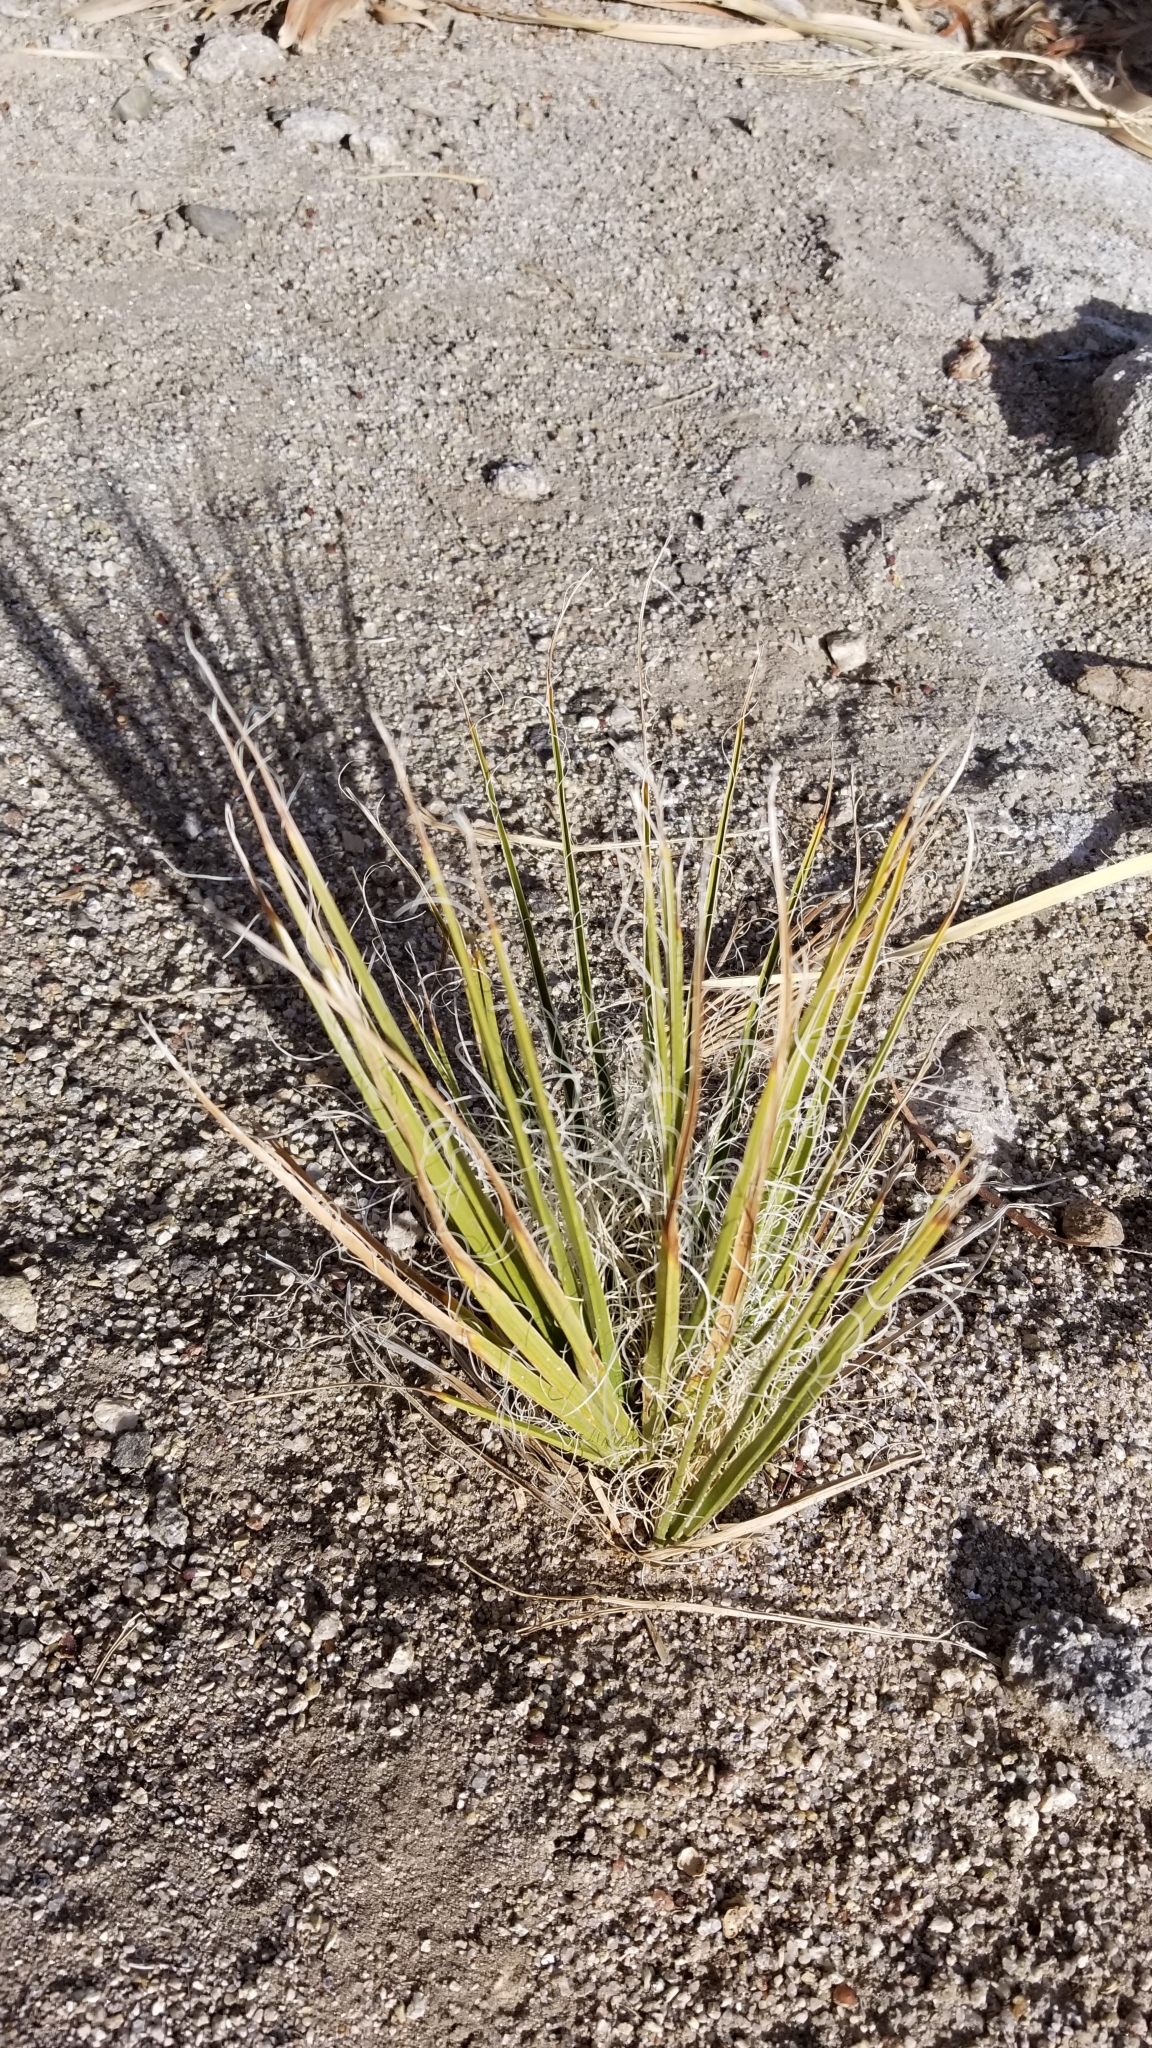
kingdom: Plantae
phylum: Tracheophyta
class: Liliopsida
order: Arecales
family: Arecaceae
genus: Washingtonia
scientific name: Washingtonia filifera
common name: California fan palm
